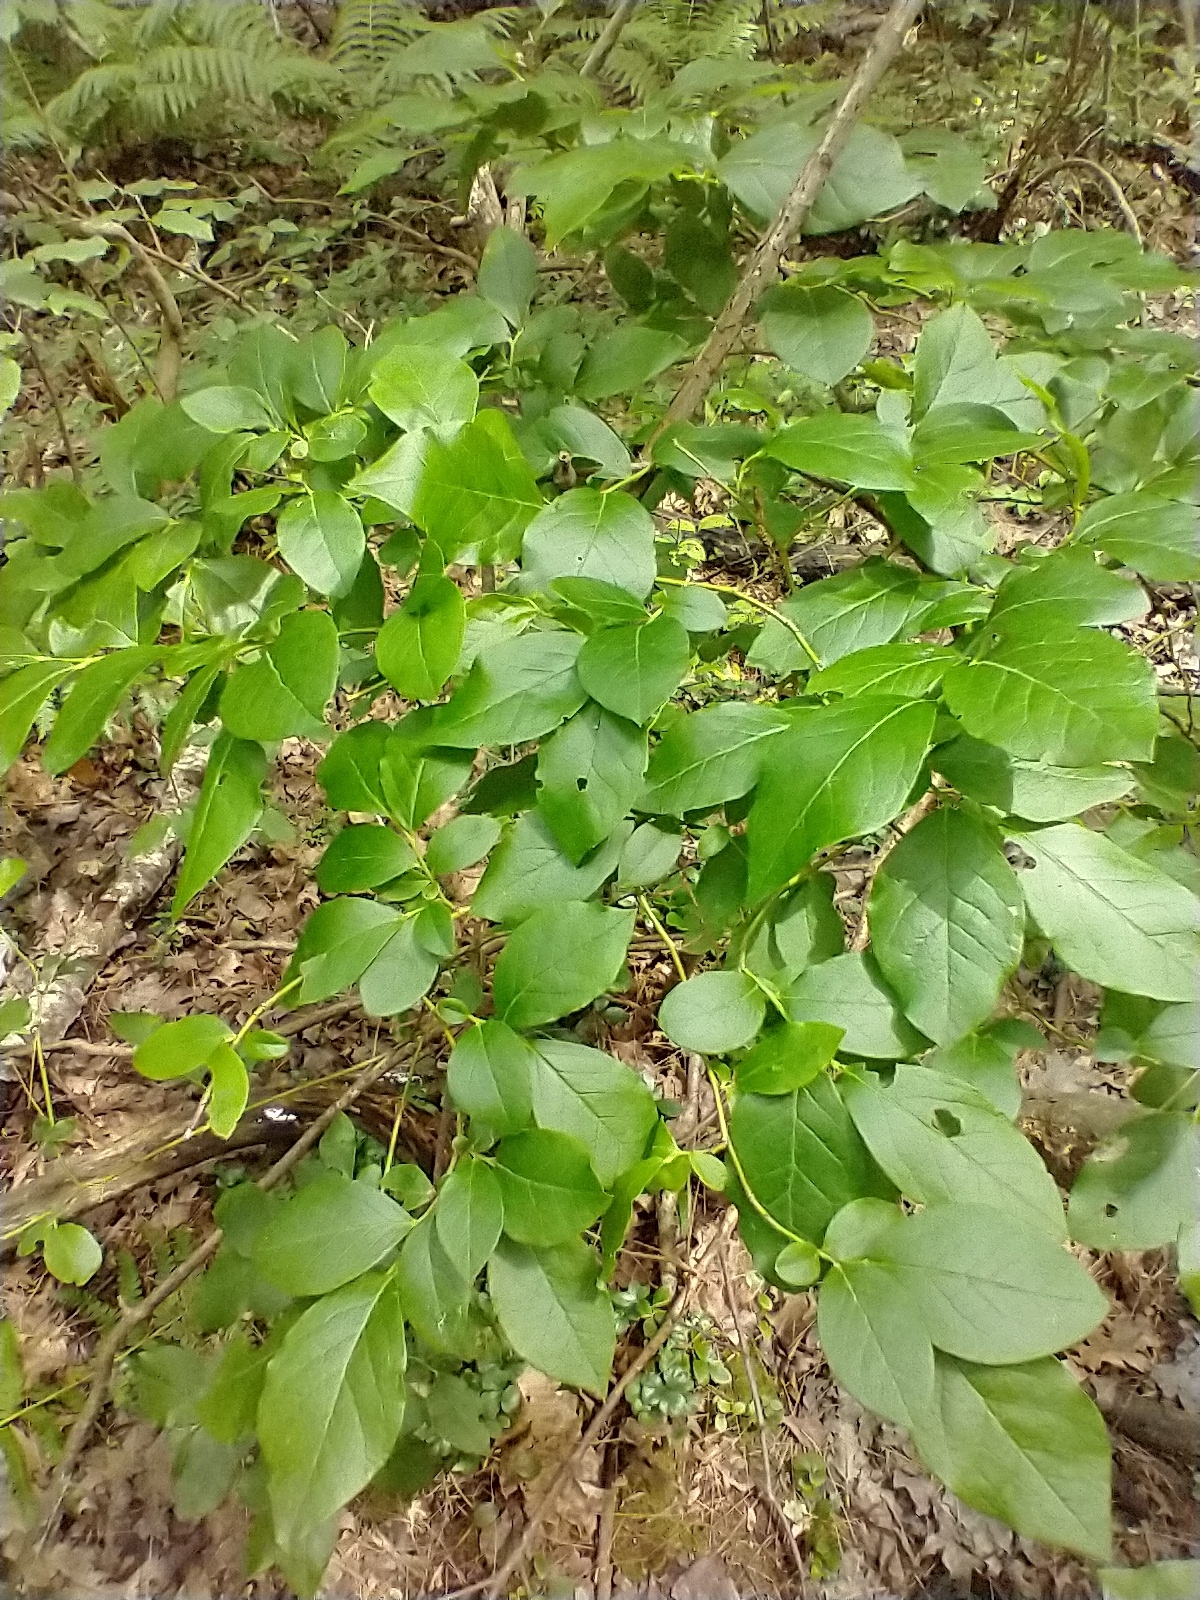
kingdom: Plantae
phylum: Tracheophyta
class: Magnoliopsida
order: Ericales
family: Ericaceae
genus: Vaccinium
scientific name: Vaccinium corymbosum
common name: Blueberry
